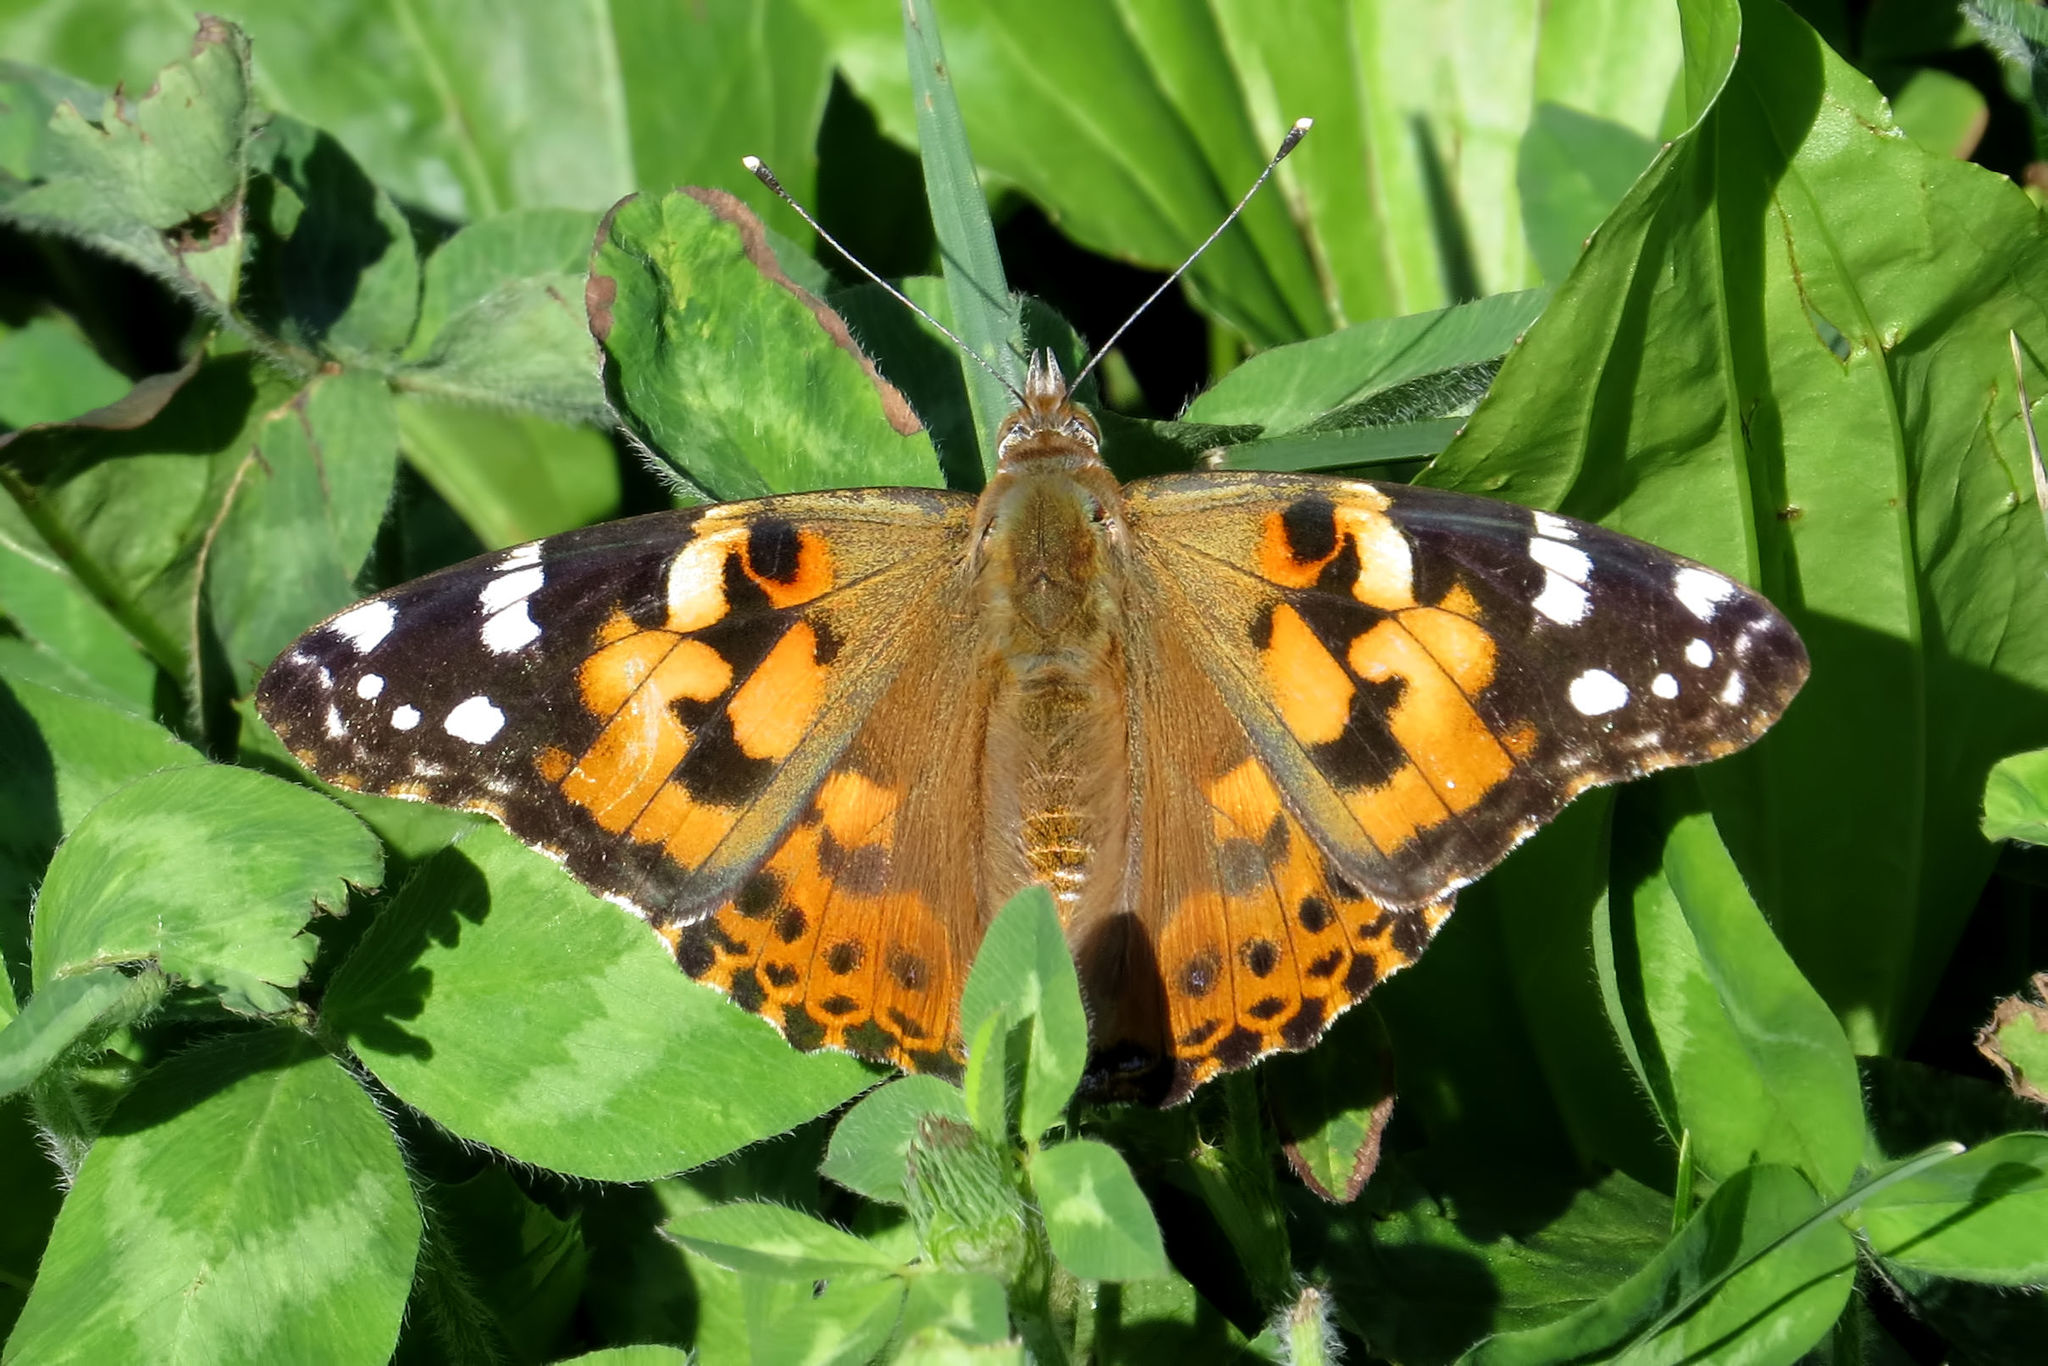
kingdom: Animalia
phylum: Arthropoda
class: Insecta
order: Lepidoptera
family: Nymphalidae
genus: Vanessa
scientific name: Vanessa cardui
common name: Painted lady
